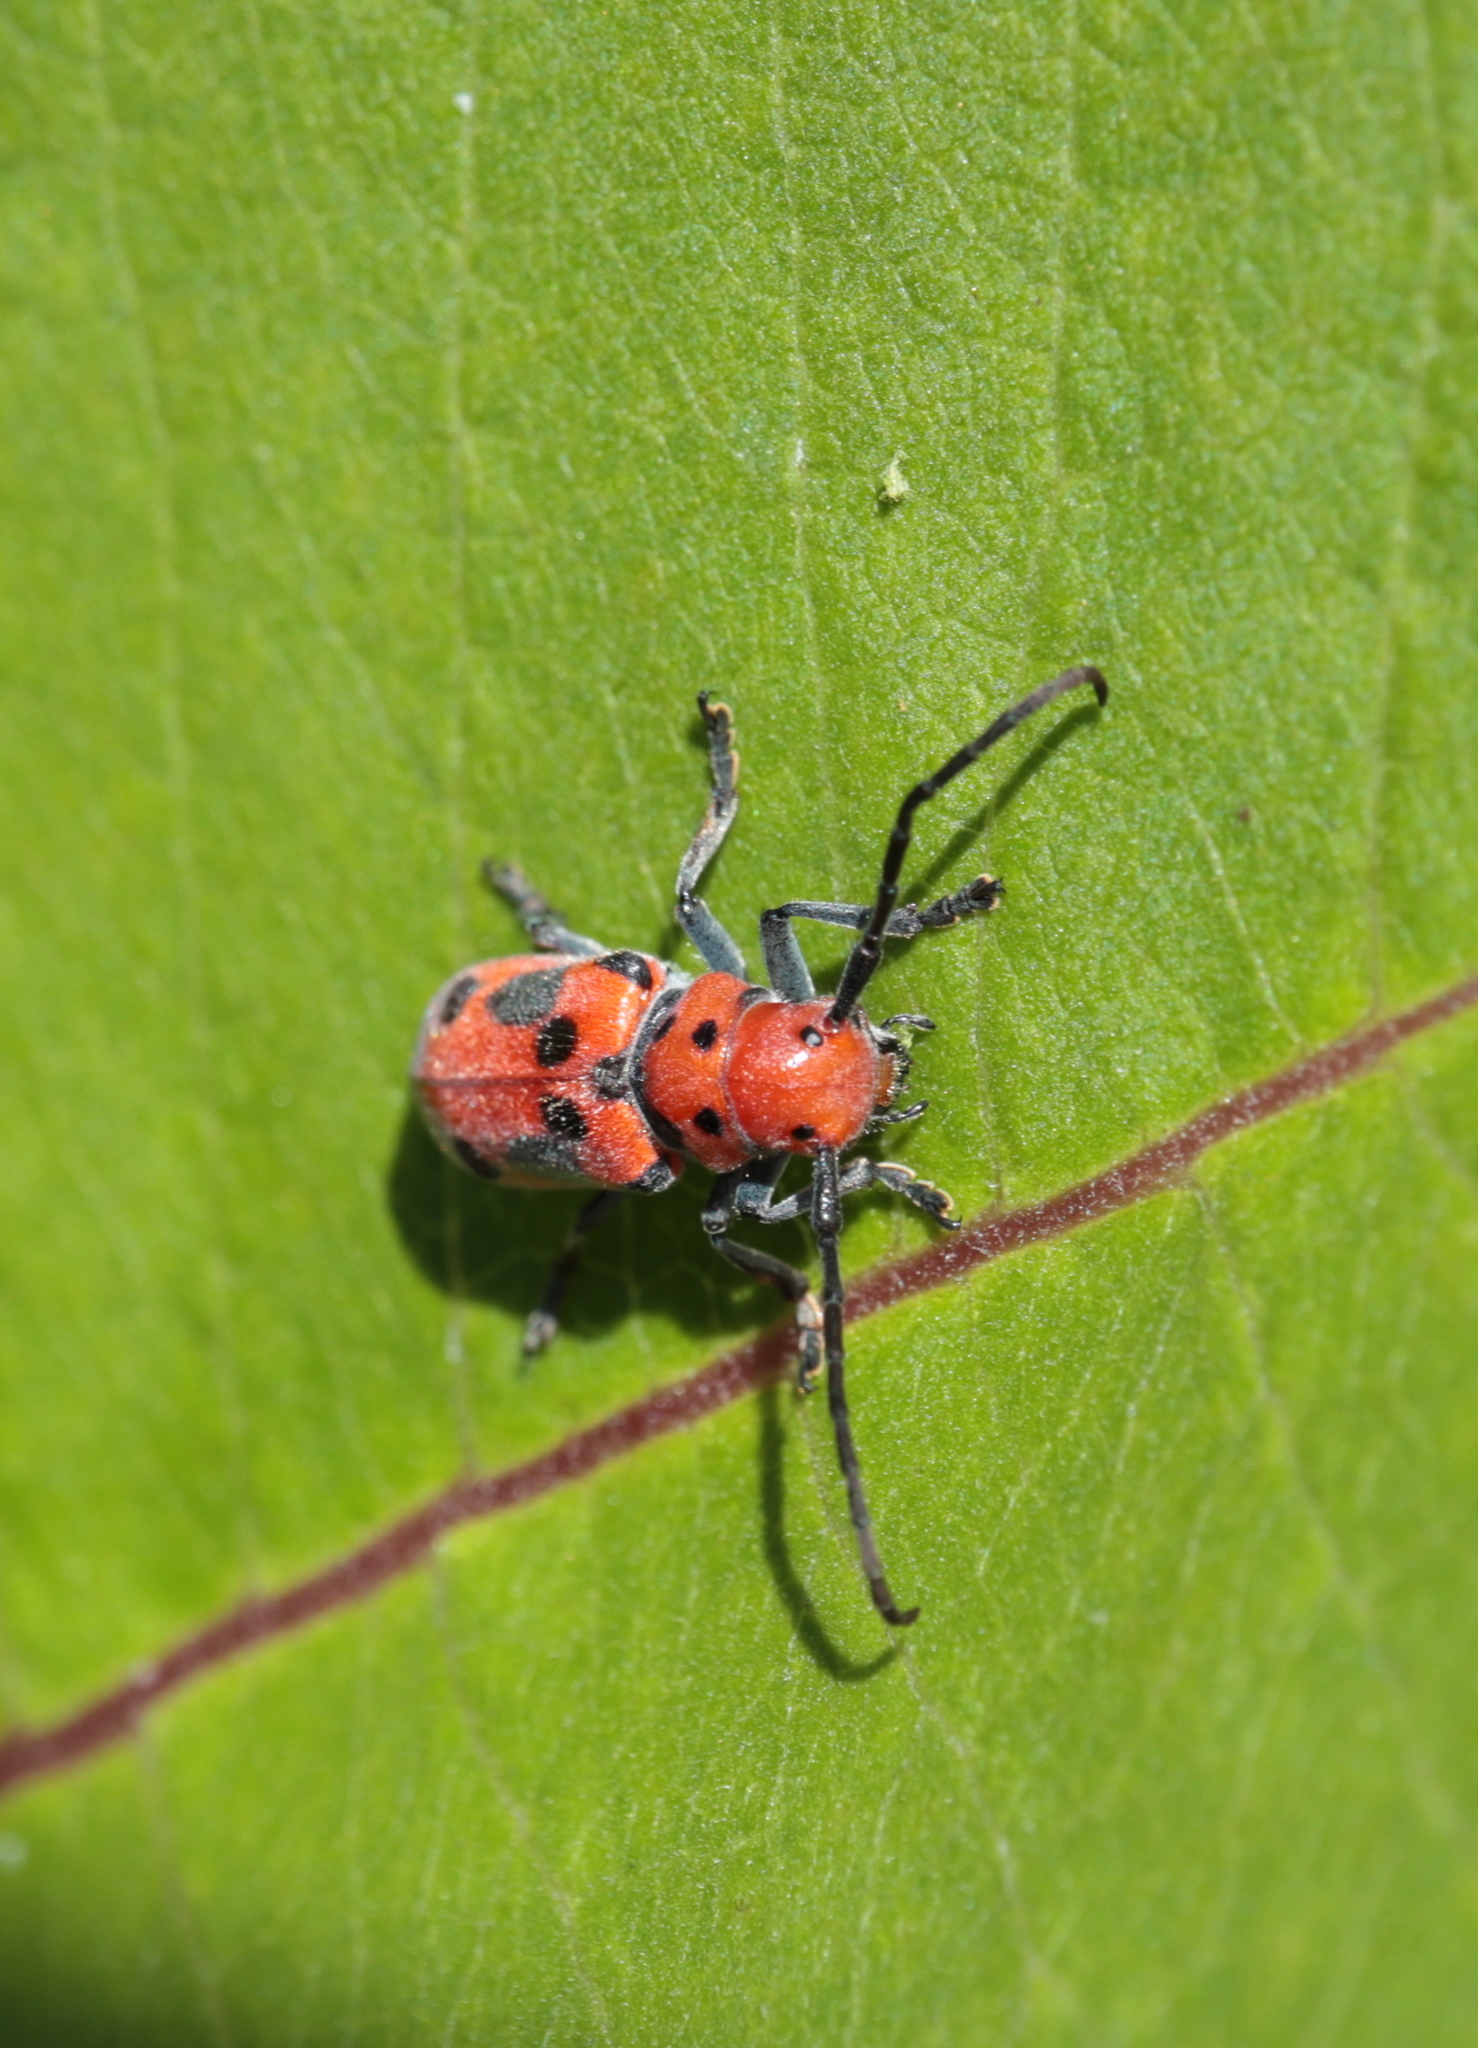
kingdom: Animalia
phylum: Arthropoda
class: Insecta
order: Coleoptera
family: Cerambycidae
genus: Tetraopes
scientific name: Tetraopes tetrophthalmus
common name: Red milkweed beetle
